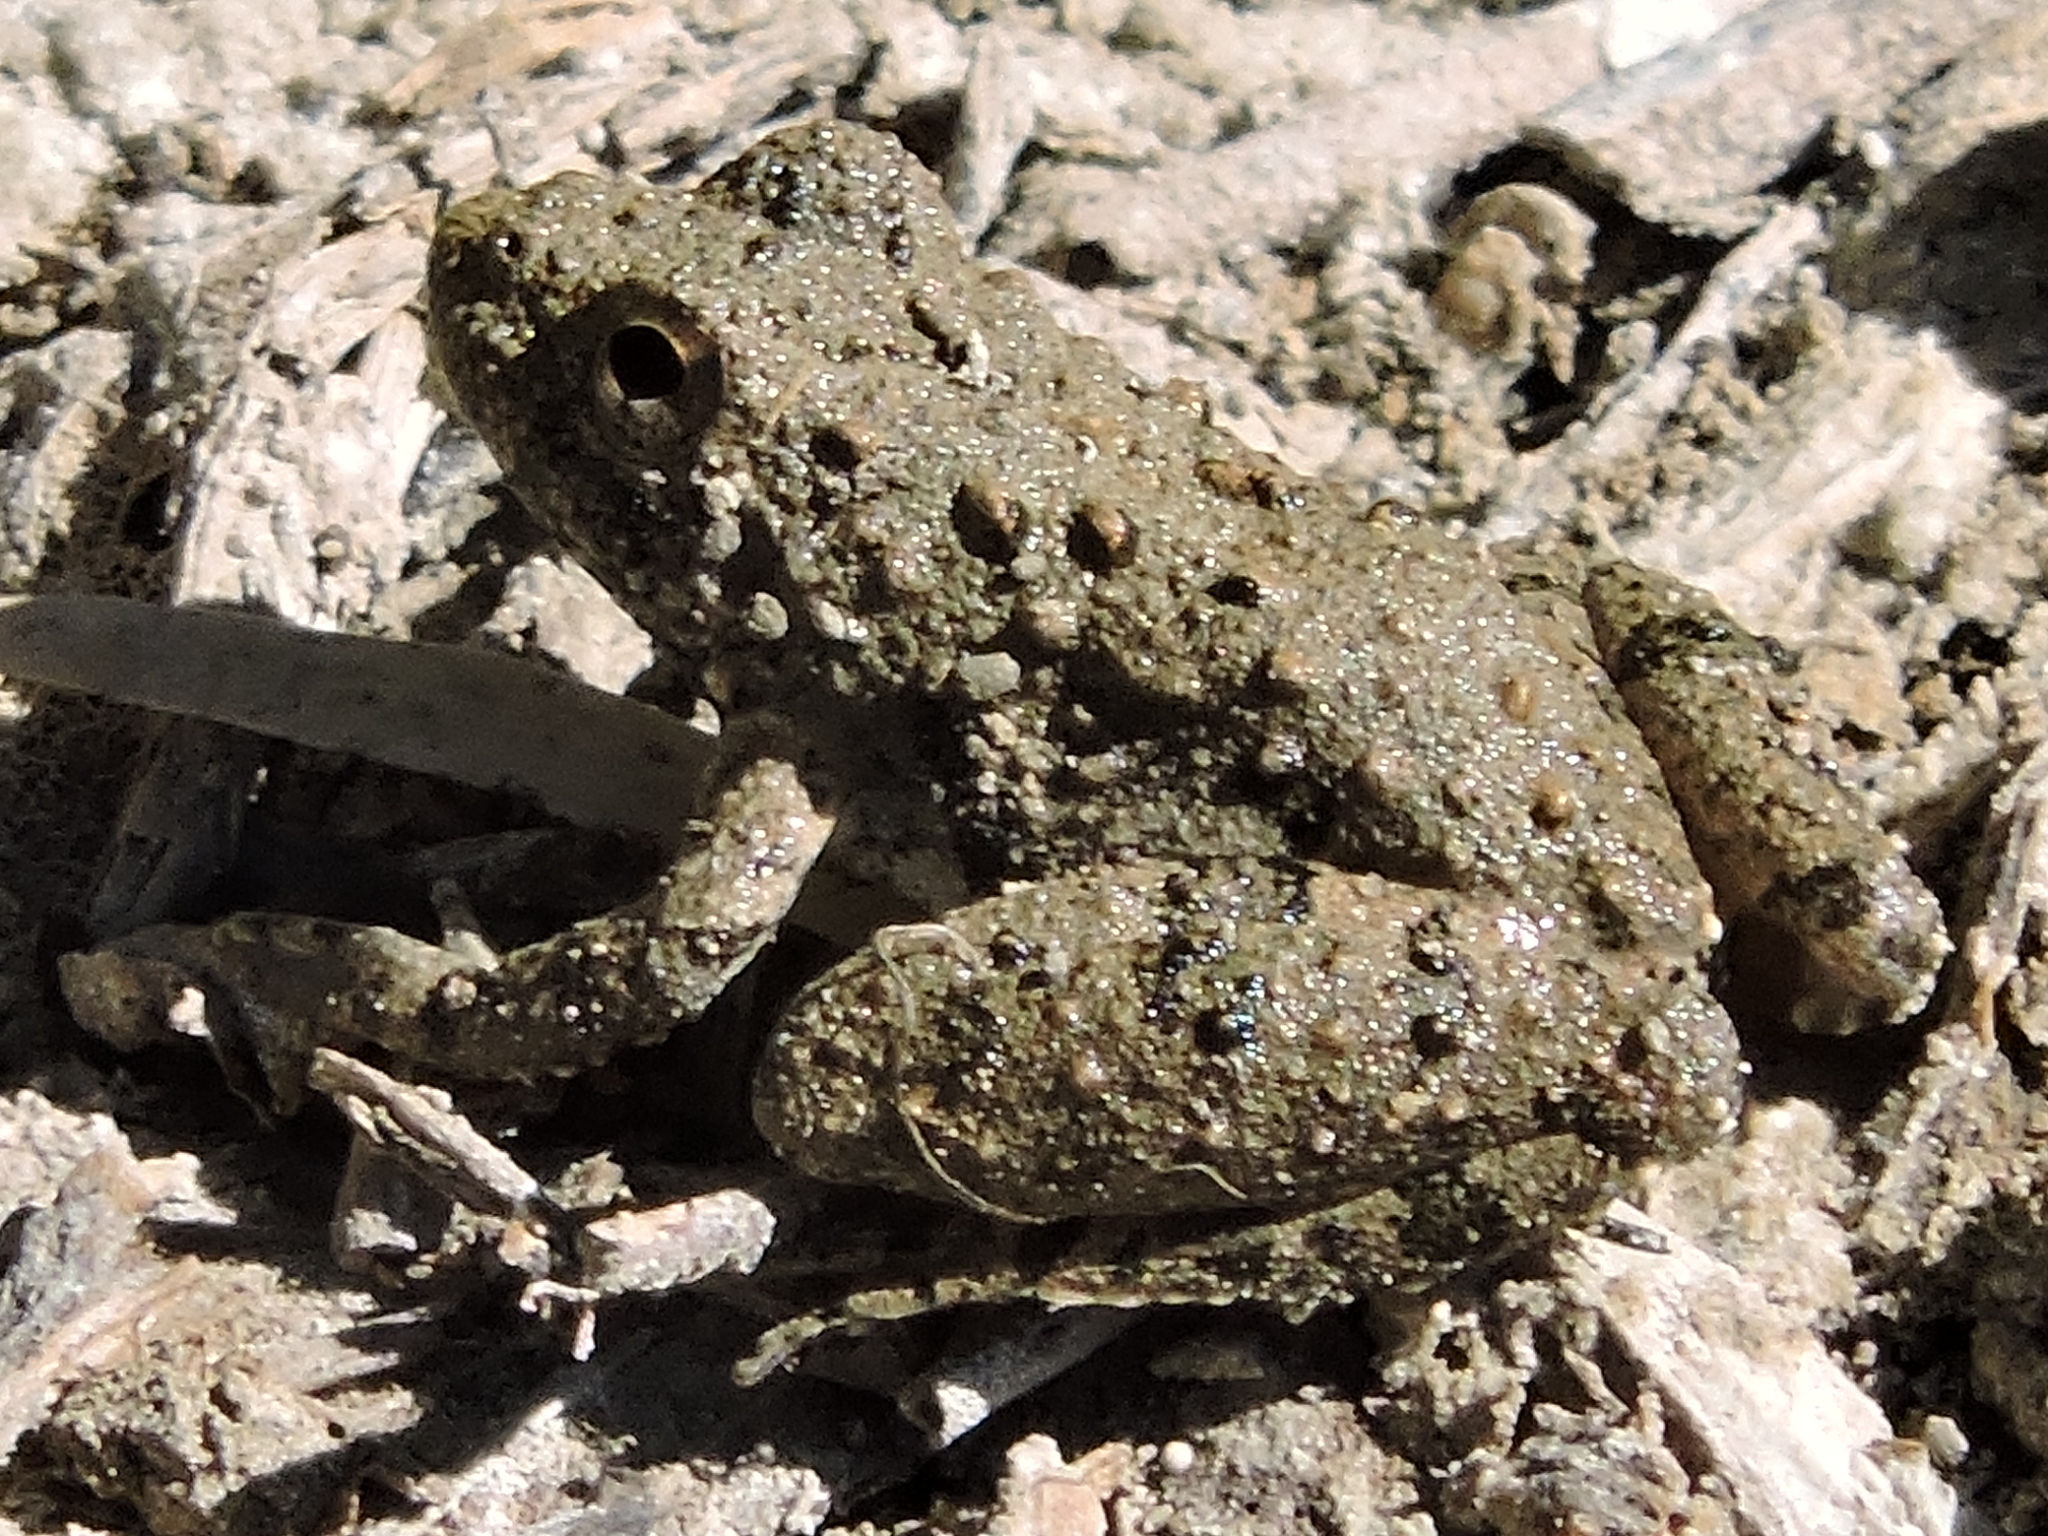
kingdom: Animalia
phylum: Chordata
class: Amphibia
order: Anura
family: Hylidae
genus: Acris
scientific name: Acris blanchardi
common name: Blanchard's cricket frog
